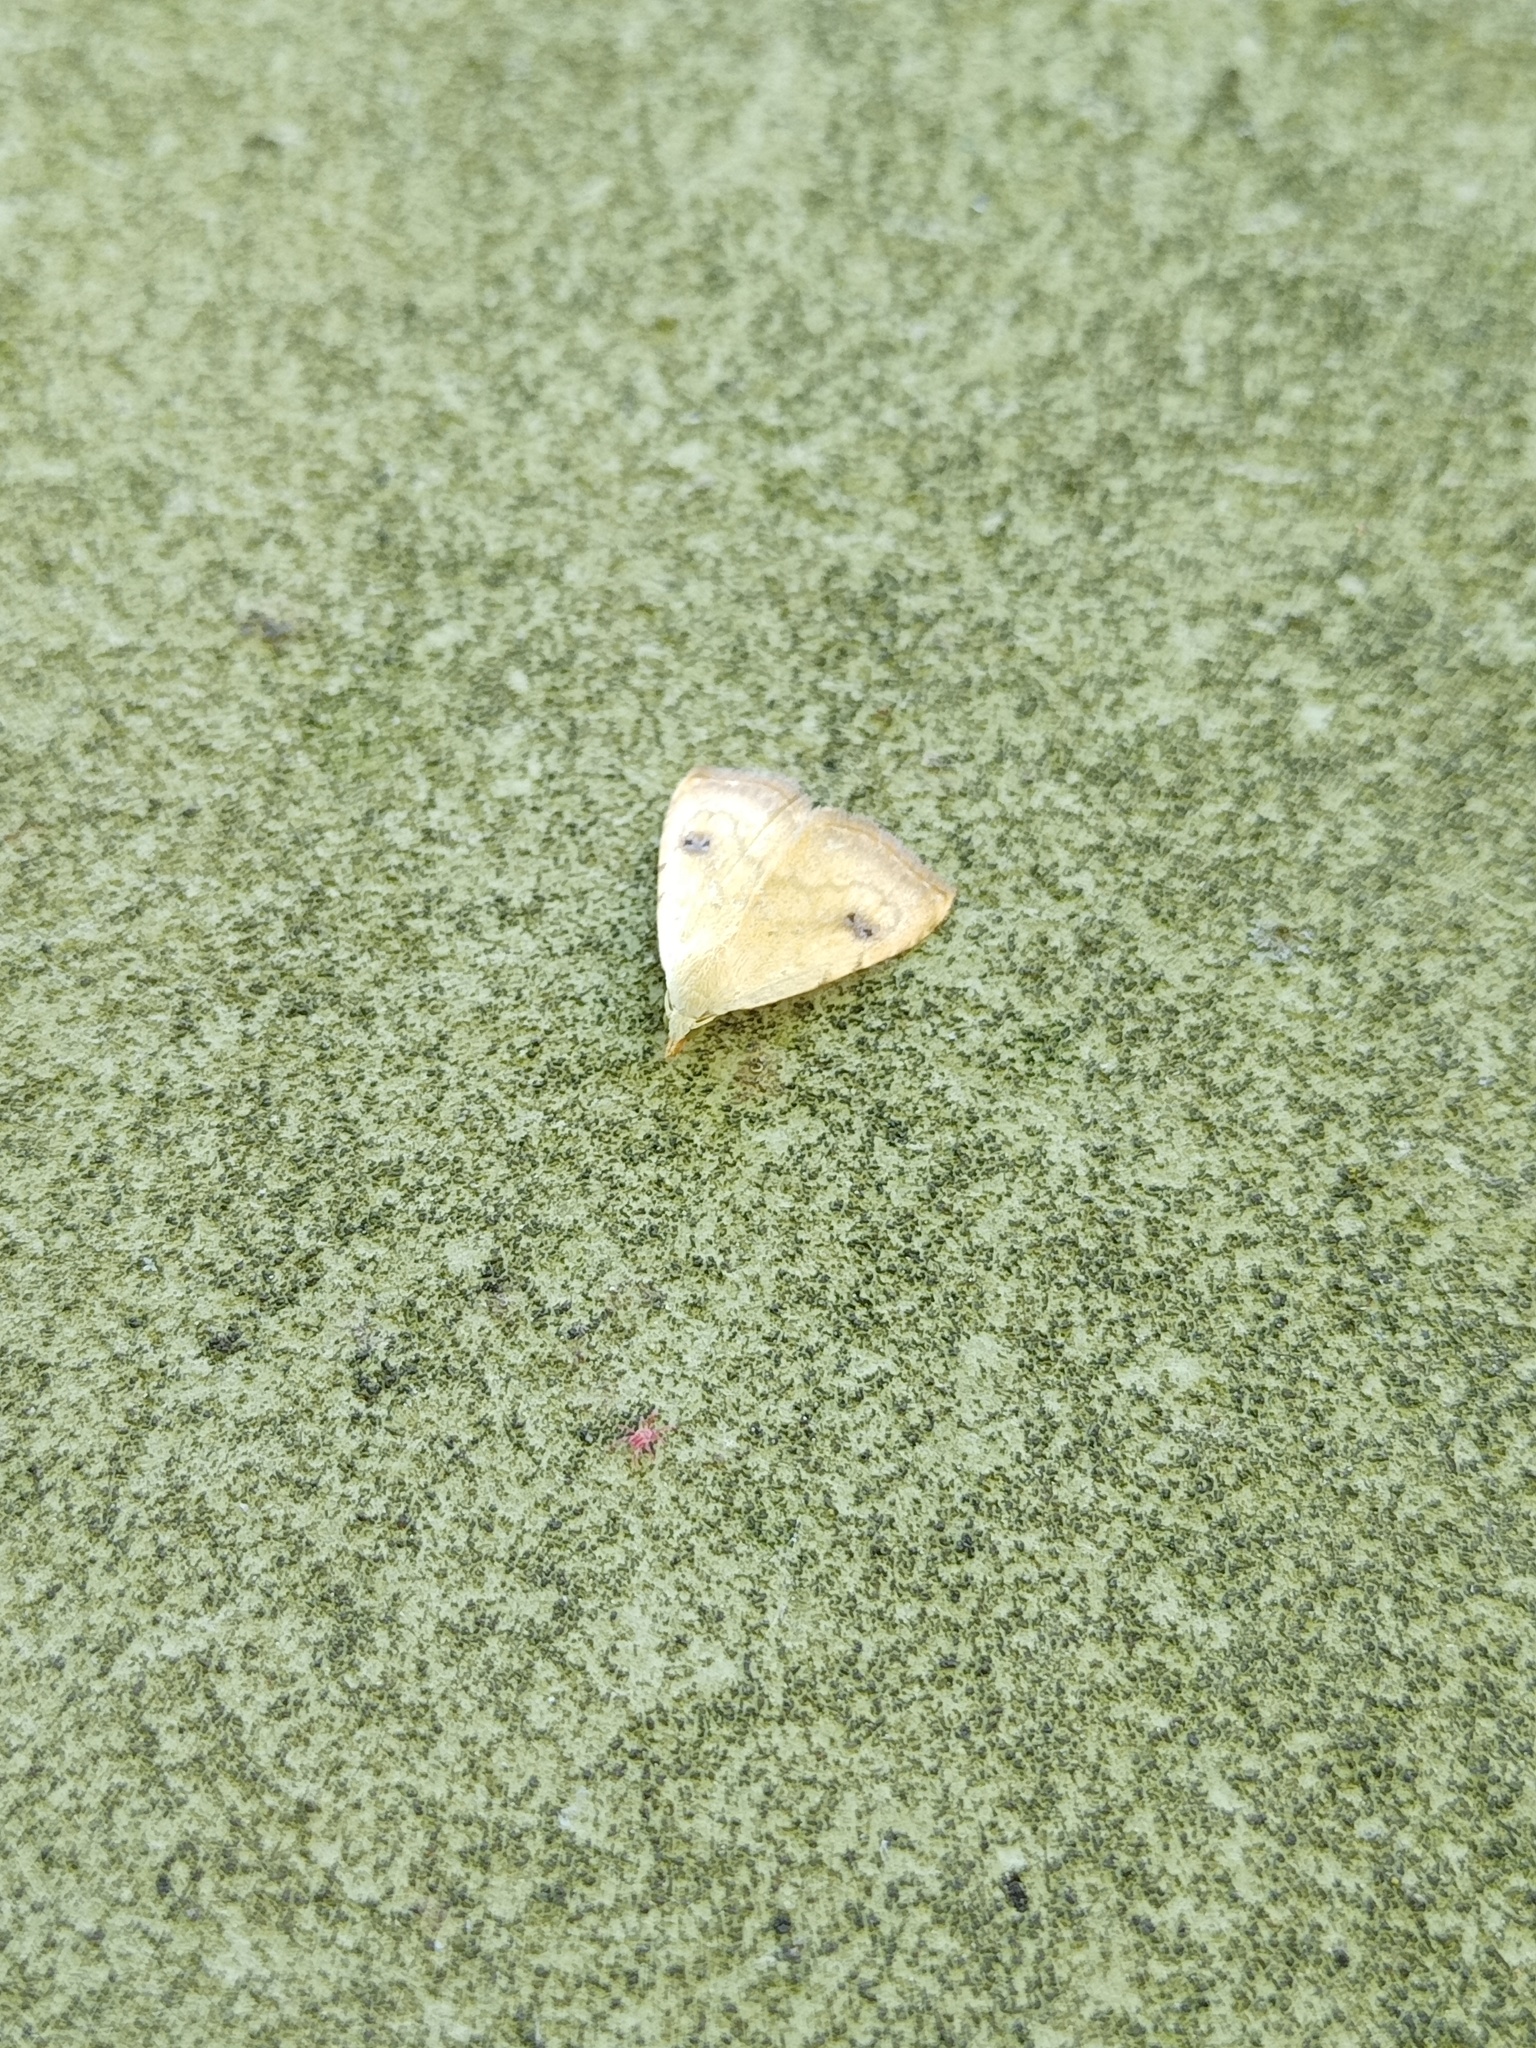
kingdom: Animalia
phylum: Arthropoda
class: Insecta
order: Lepidoptera
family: Erebidae
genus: Rivula
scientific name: Rivula sericealis
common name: Straw dot
